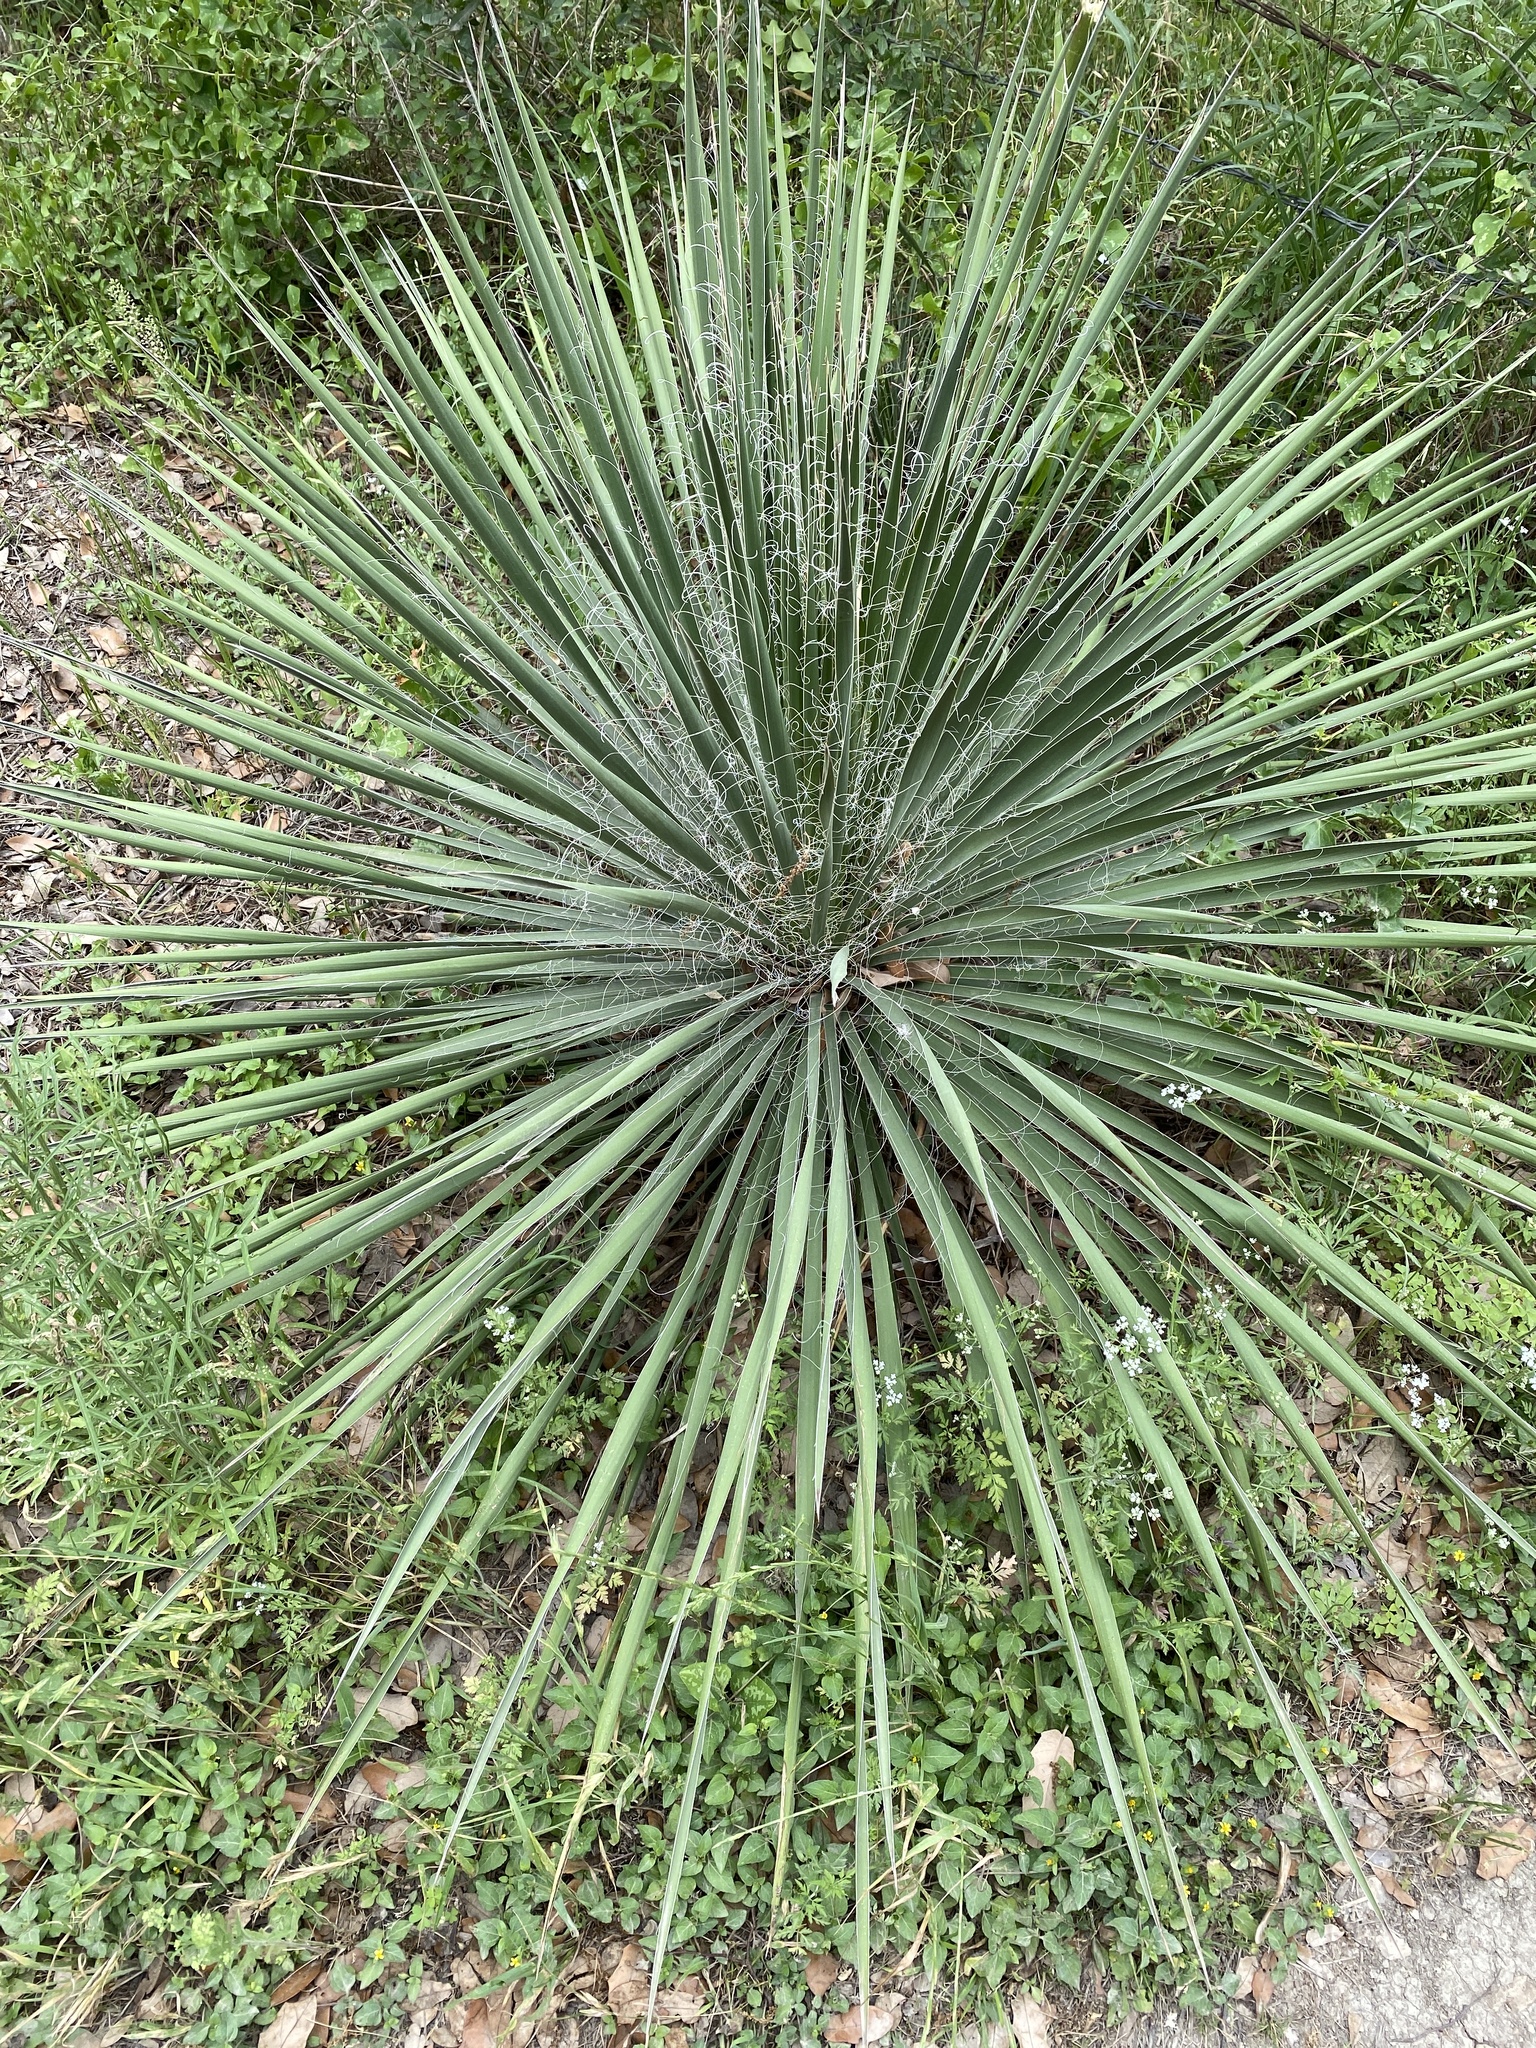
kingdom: Plantae
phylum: Tracheophyta
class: Liliopsida
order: Asparagales
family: Asparagaceae
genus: Yucca
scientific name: Yucca constricta
